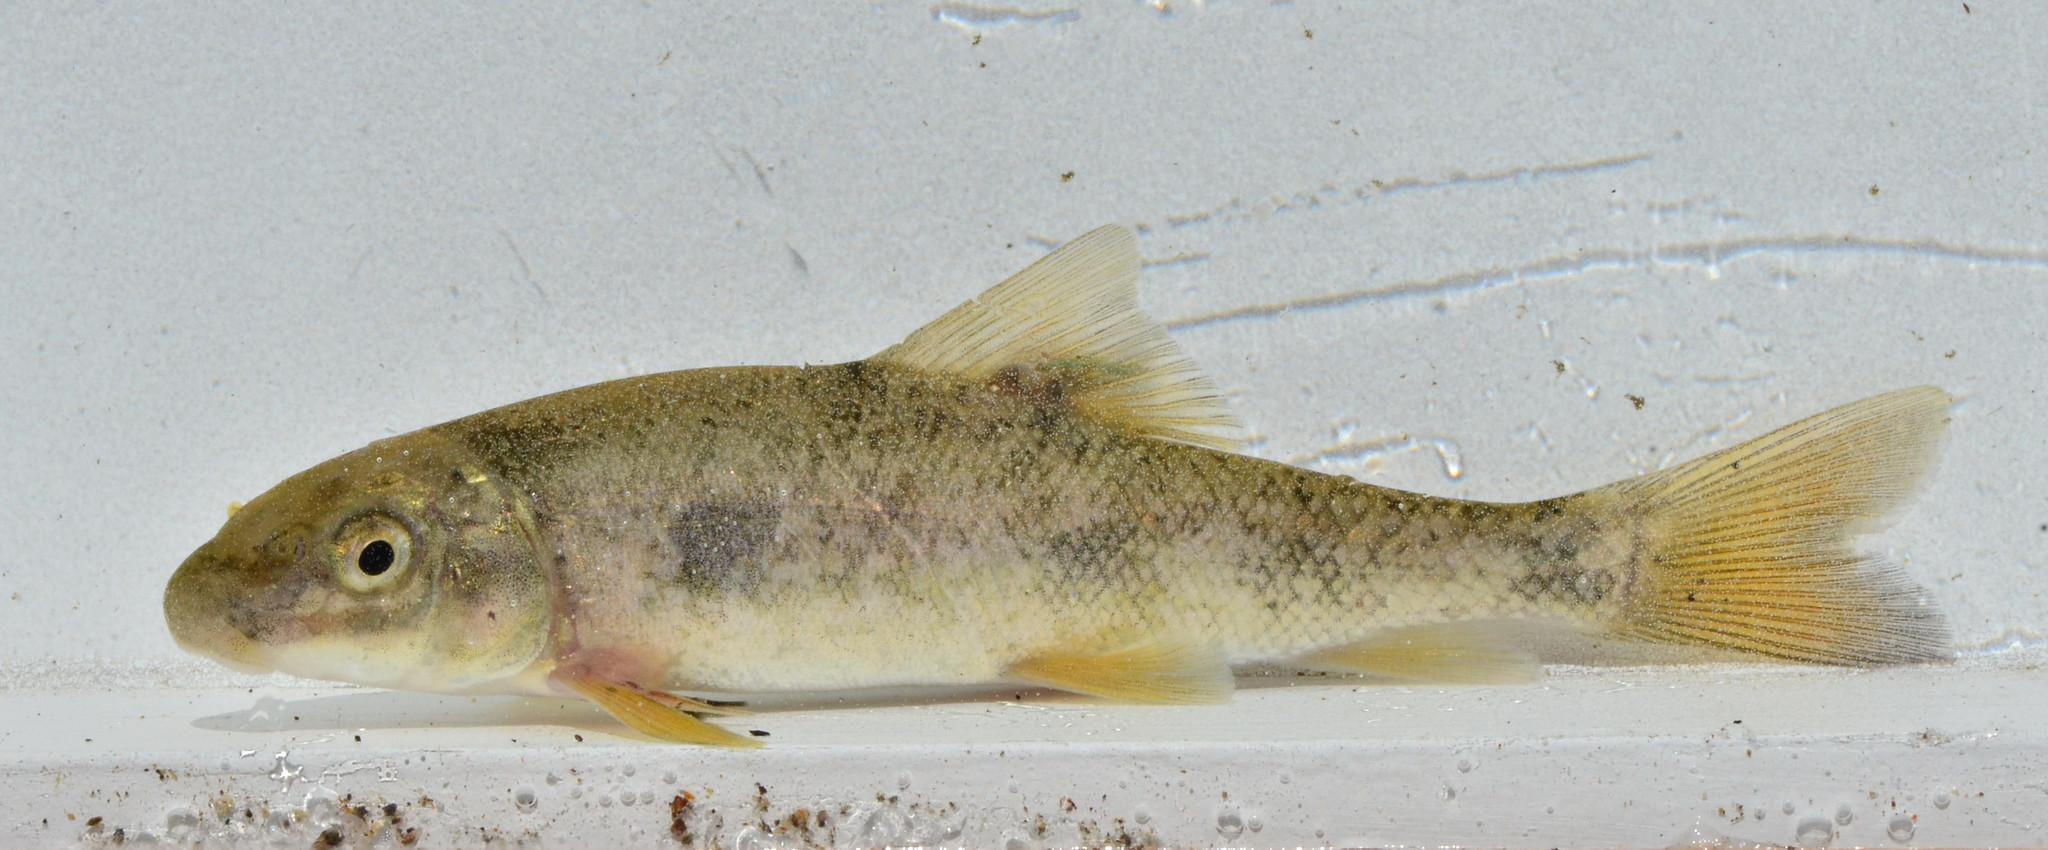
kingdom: Animalia
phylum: Chordata
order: Cypriniformes
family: Catostomidae
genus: Catostomus
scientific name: Catostomus occidentalis
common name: Goose lake sucker
